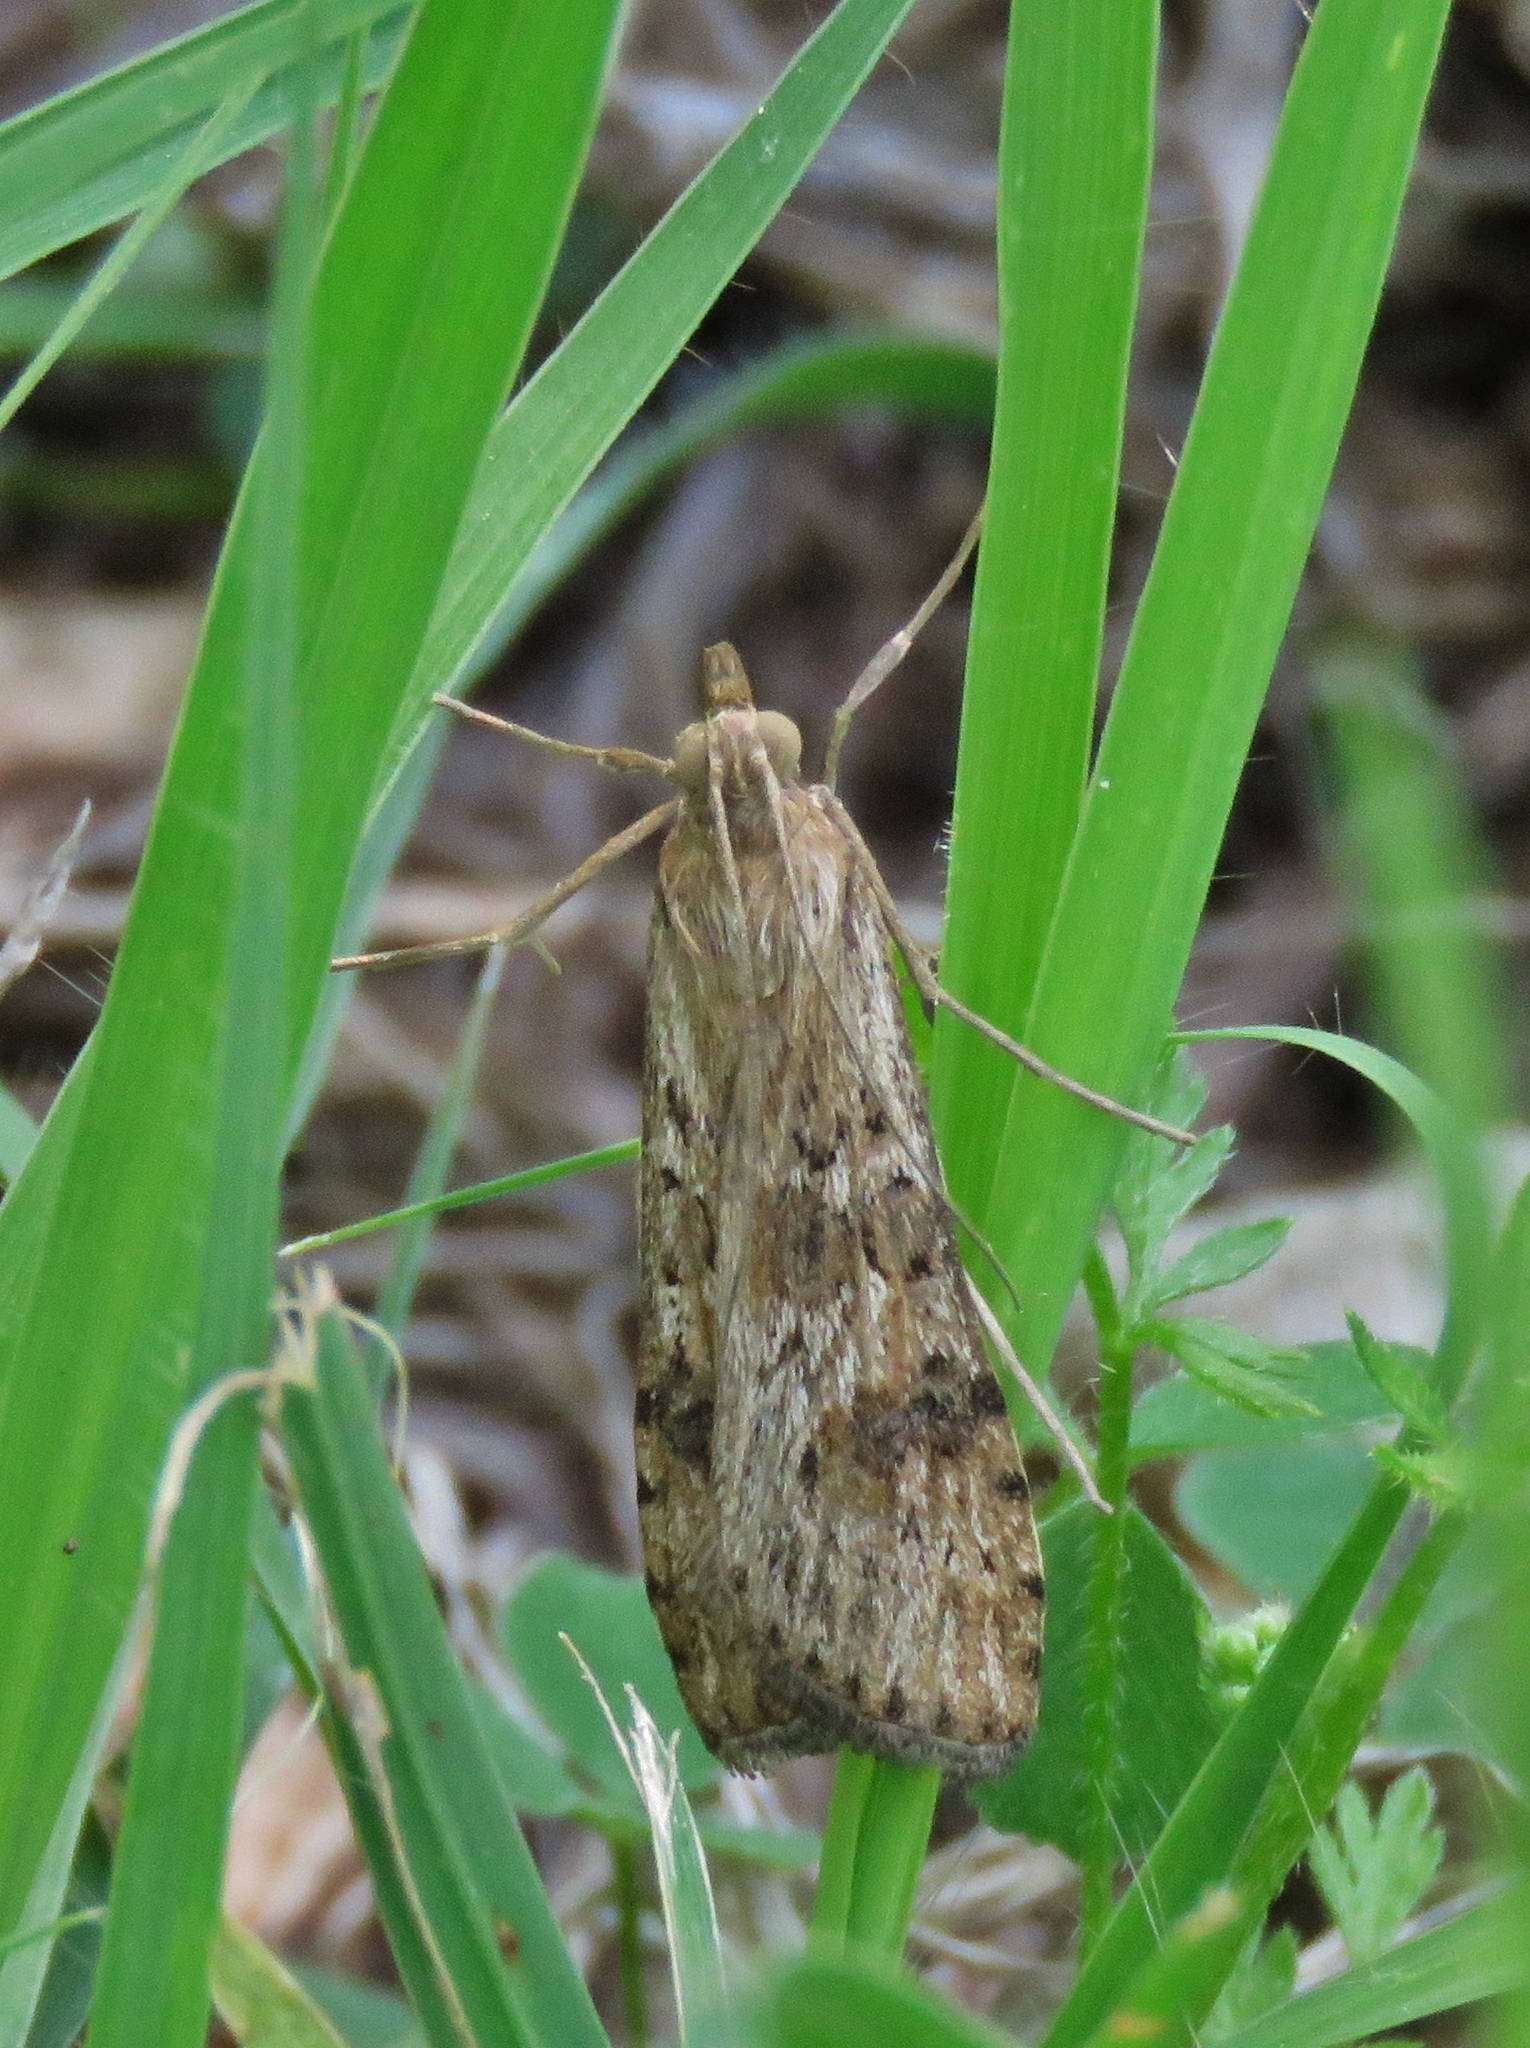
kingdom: Animalia
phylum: Arthropoda
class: Insecta
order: Lepidoptera
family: Crambidae
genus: Nomophila
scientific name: Nomophila nearctica
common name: American rush veneer
